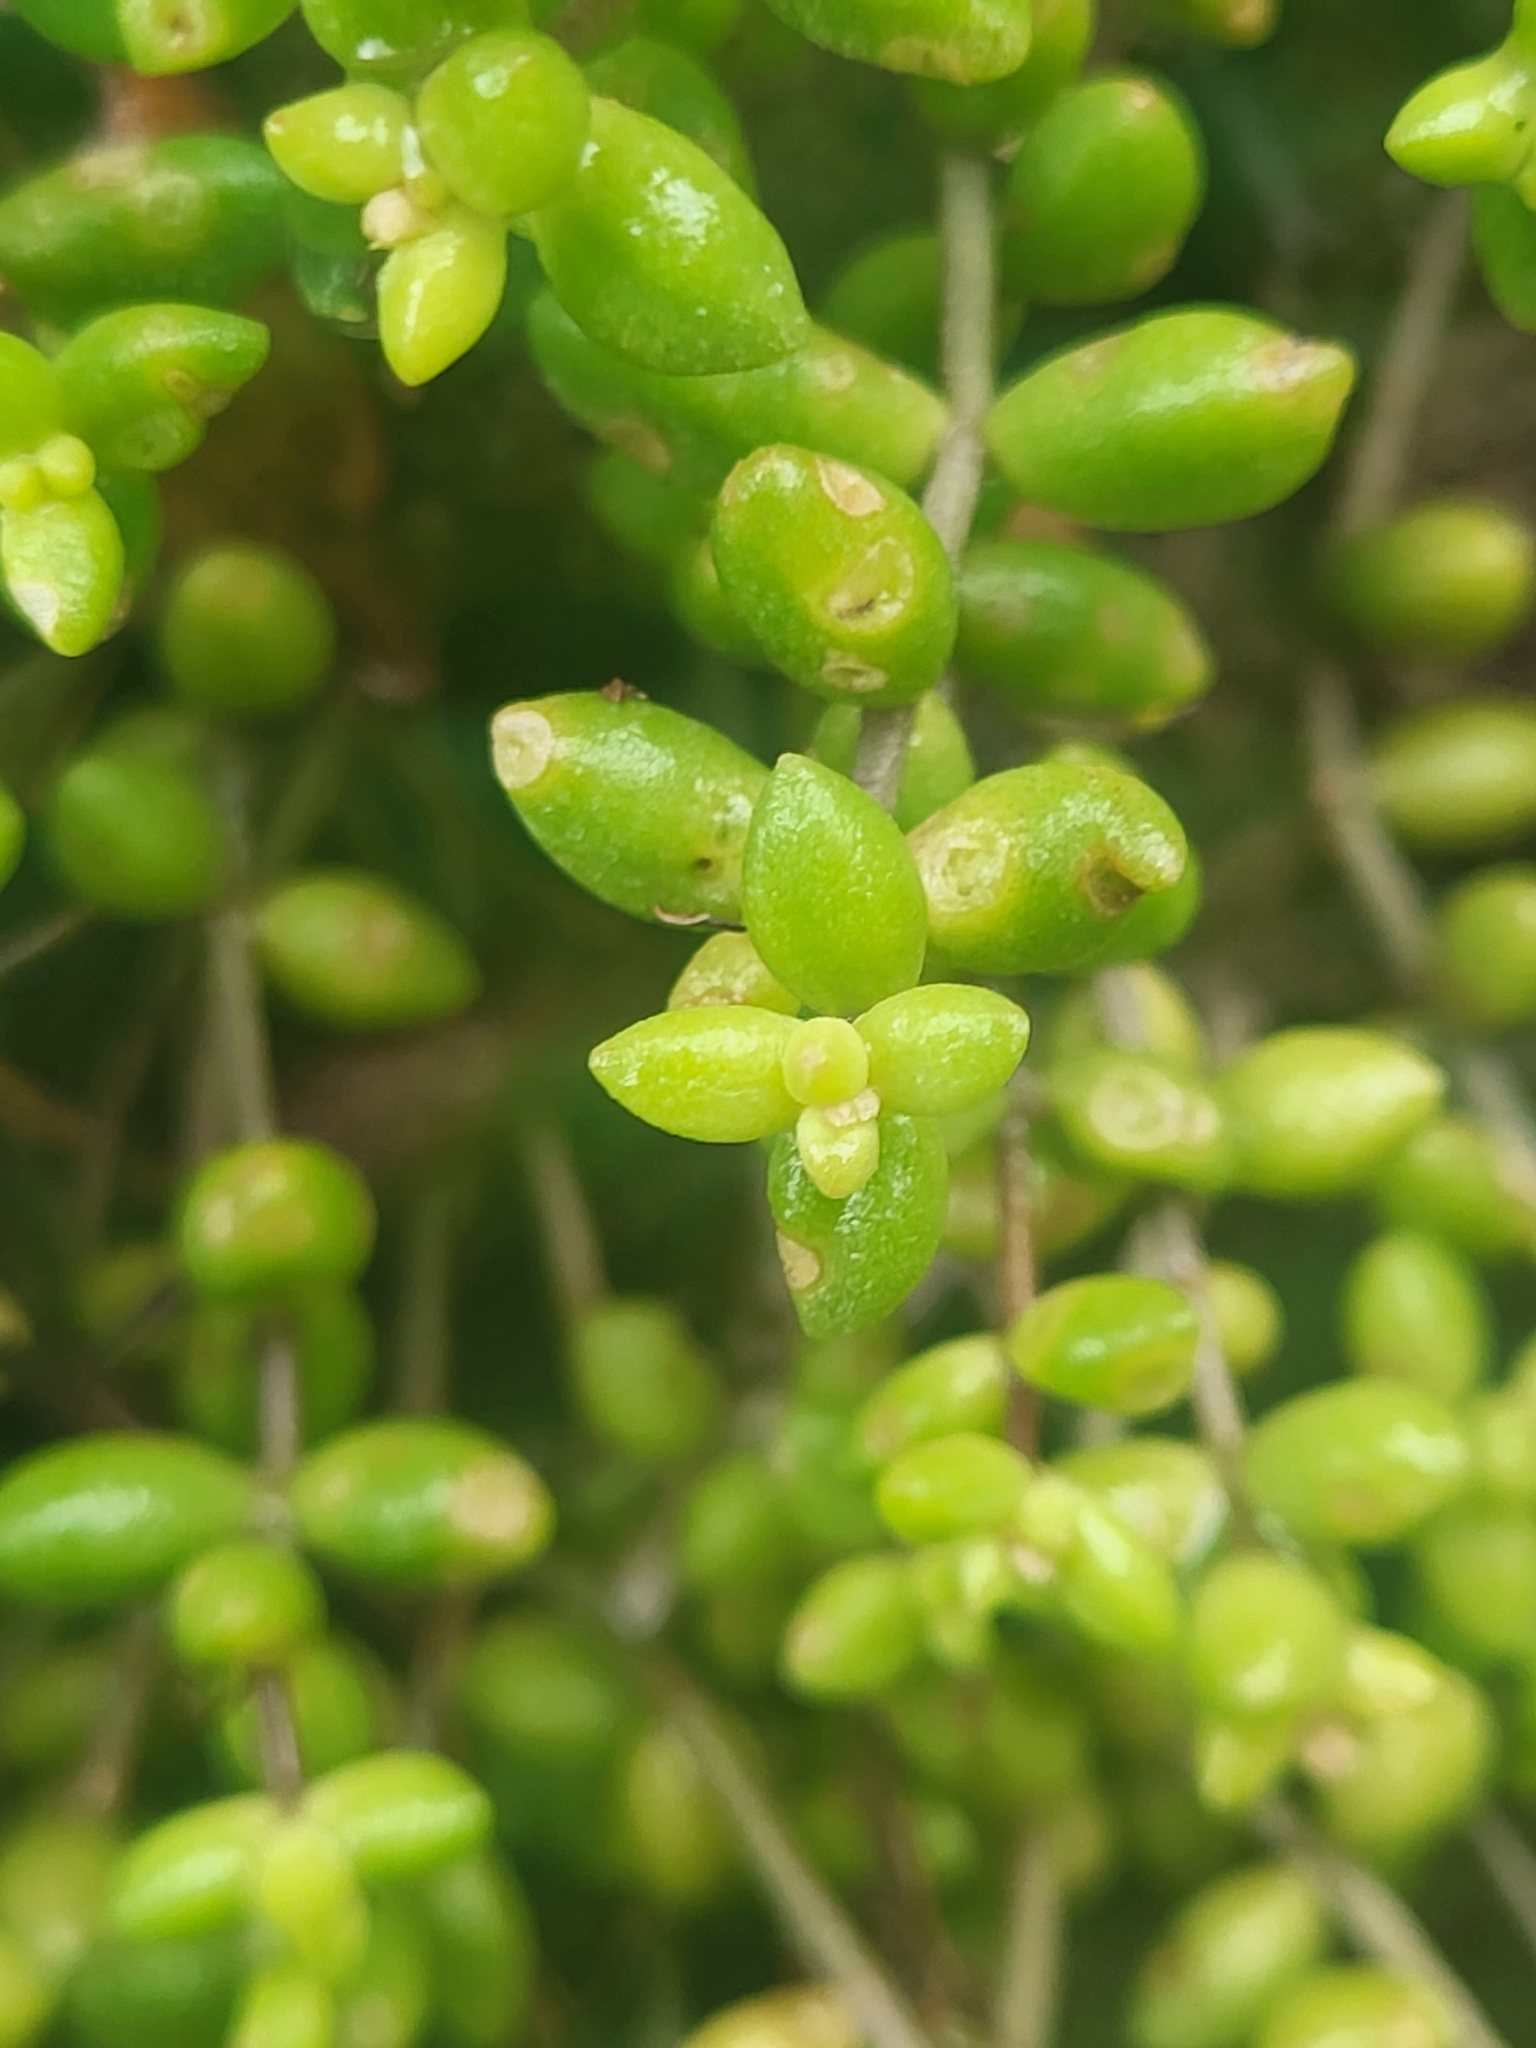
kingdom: Plantae
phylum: Tracheophyta
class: Magnoliopsida
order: Saxifragales
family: Crassulaceae
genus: Monanthes
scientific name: Monanthes laxiflora
